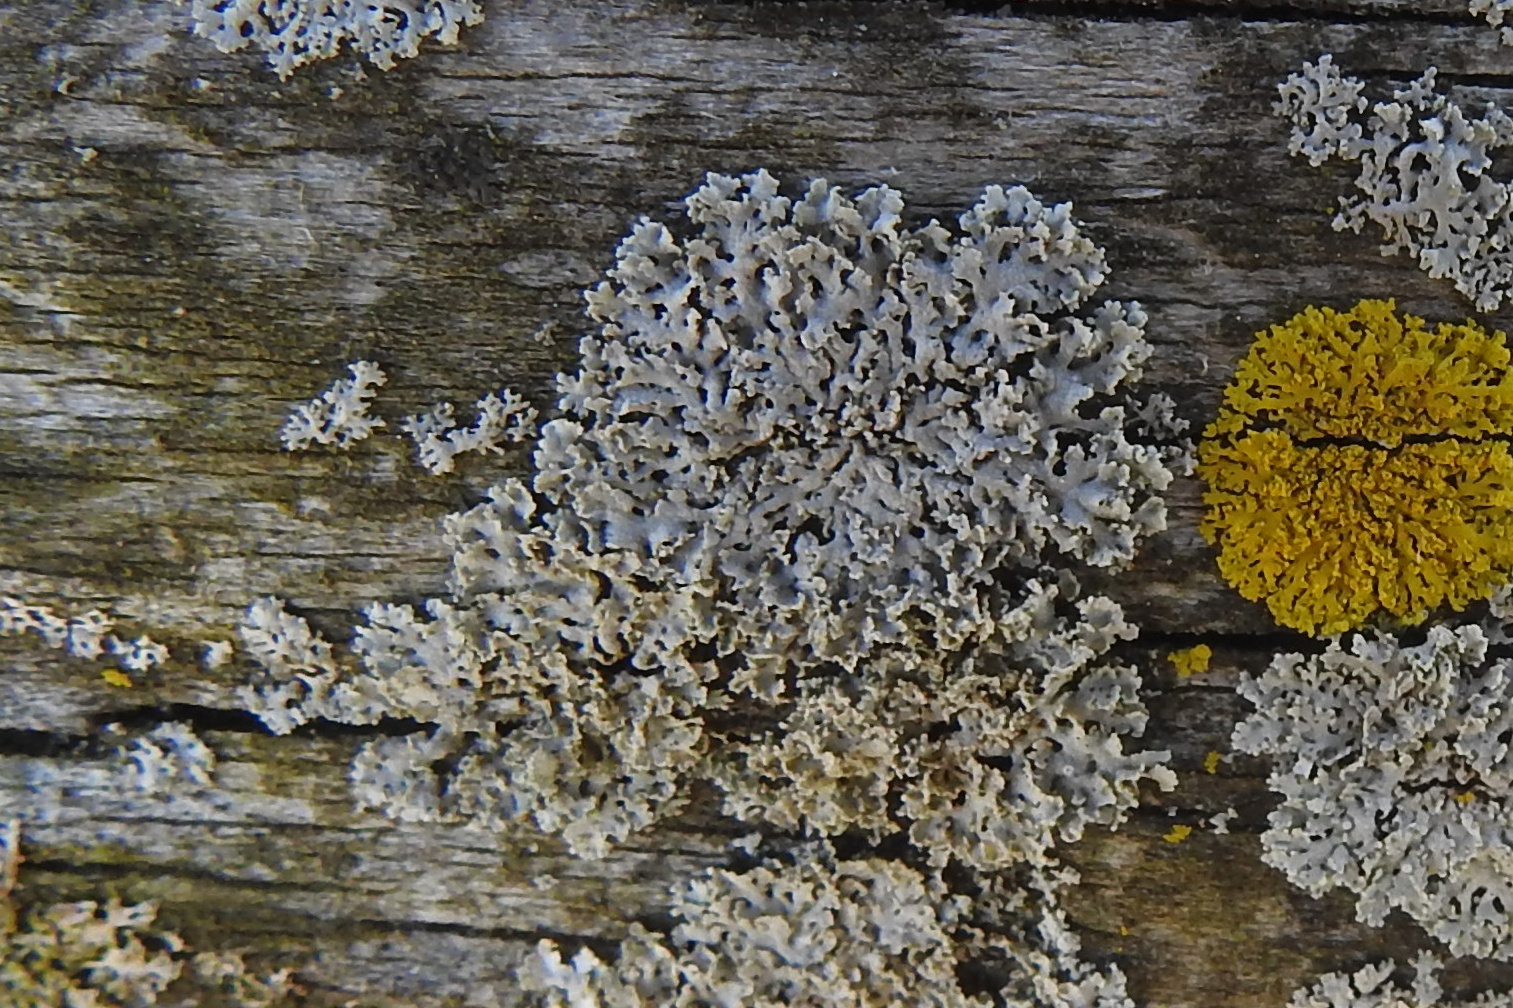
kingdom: Fungi
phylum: Ascomycota
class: Lecanoromycetes
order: Caliciales
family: Physciaceae
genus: Physcia
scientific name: Physcia millegrana
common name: Rosette lichen
